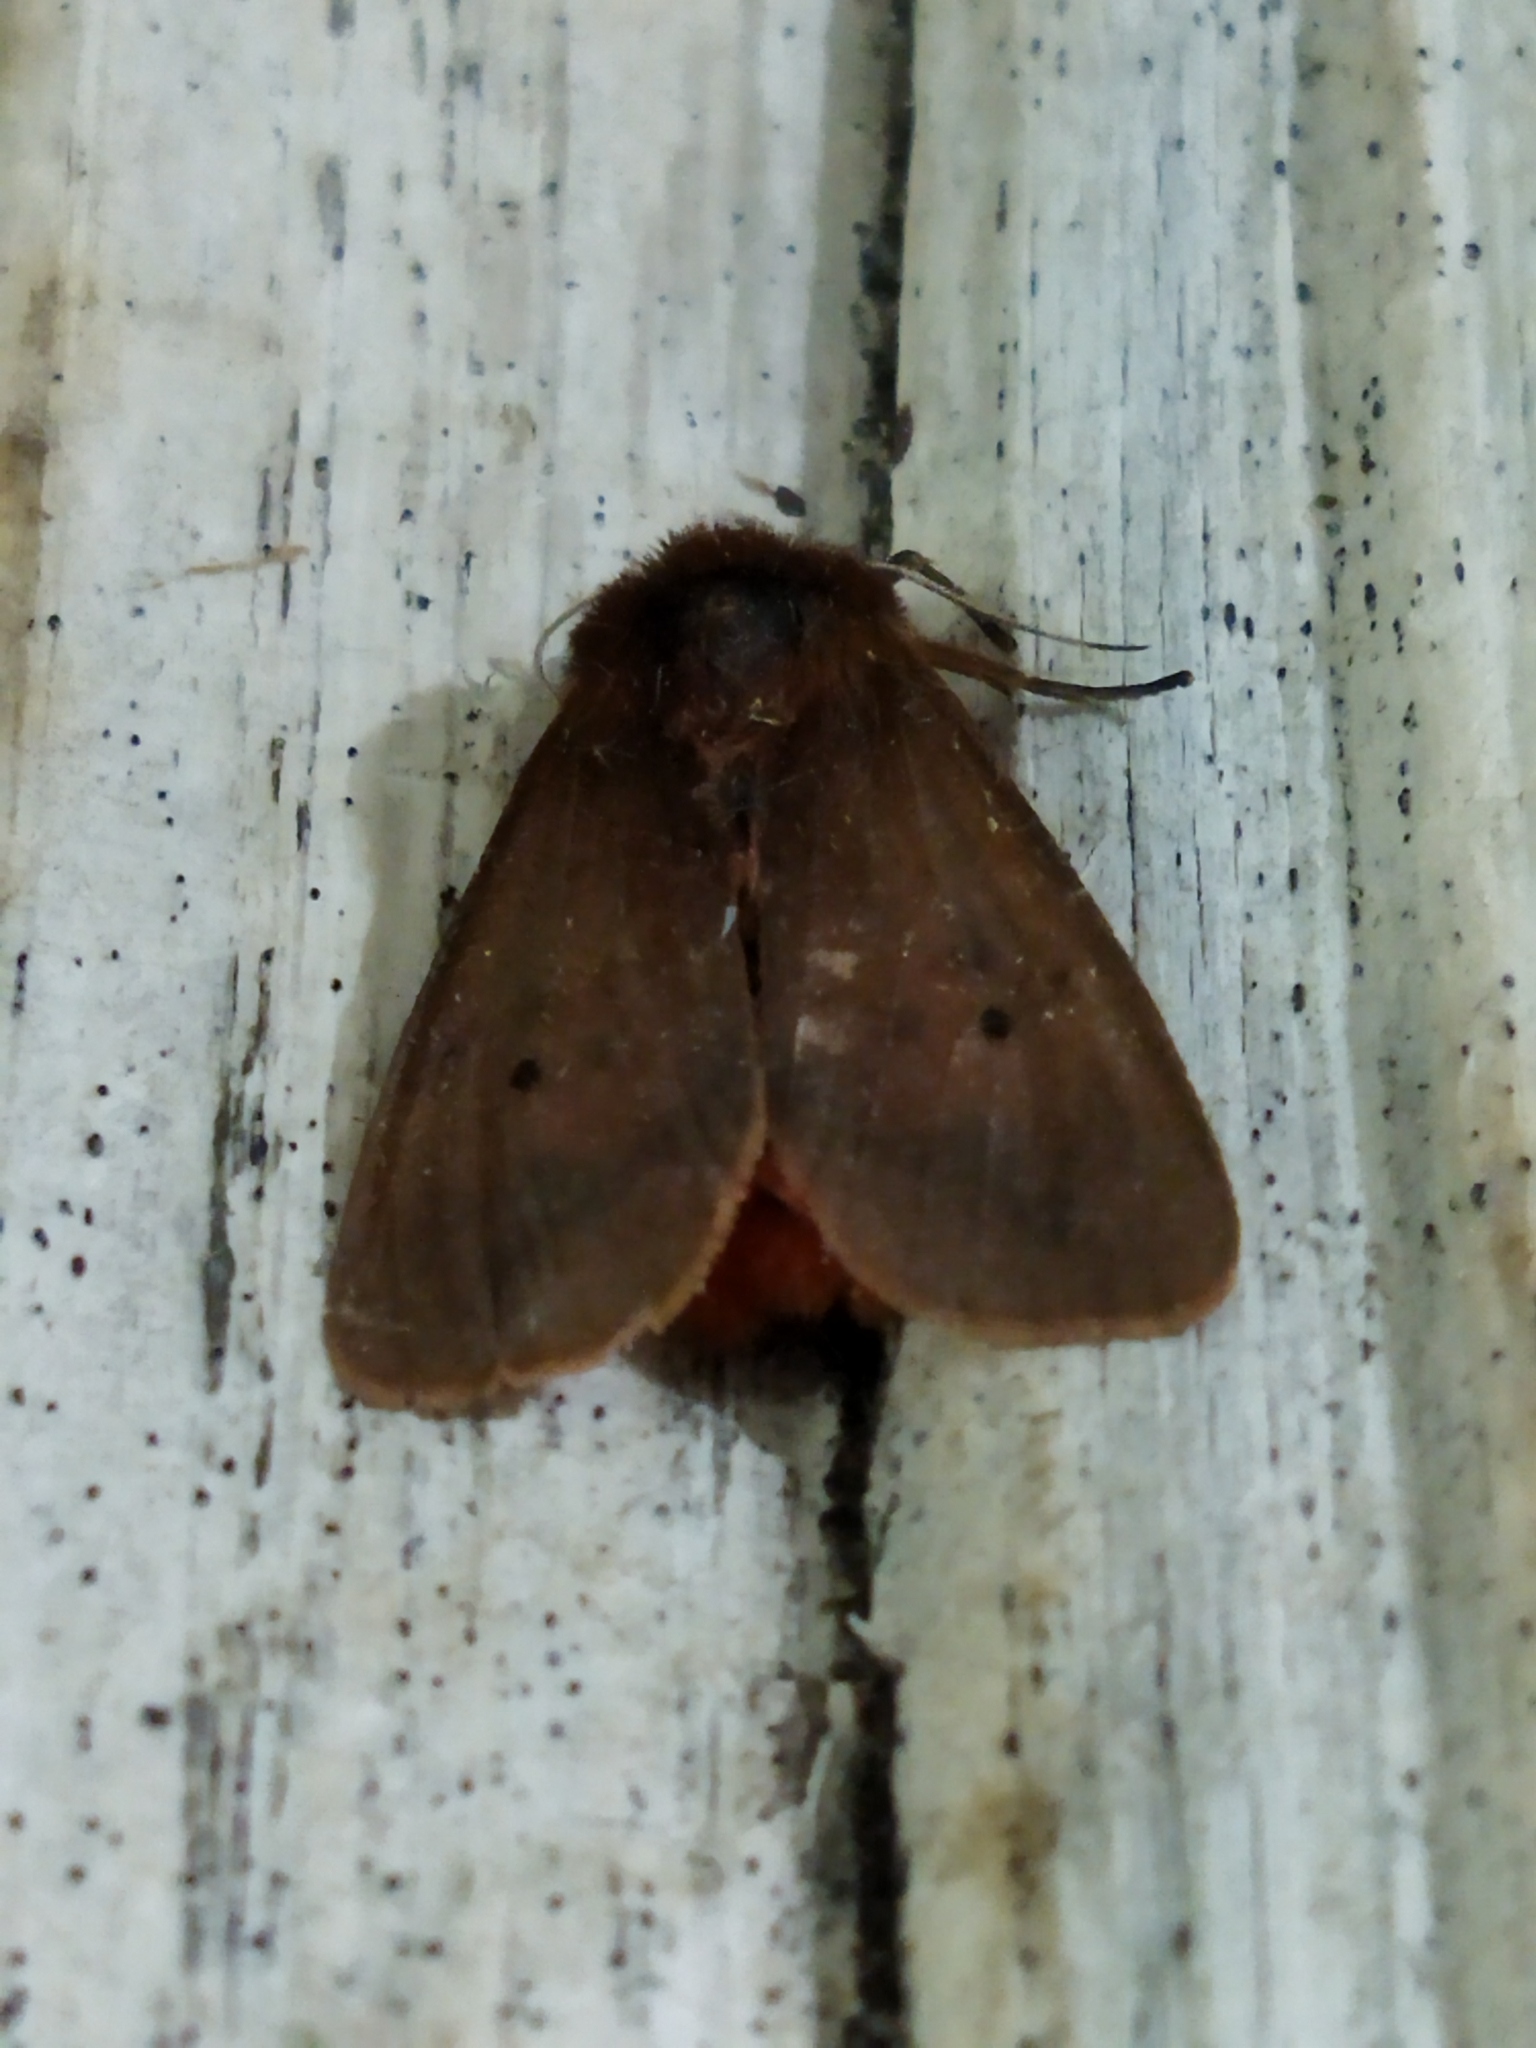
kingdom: Animalia
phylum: Arthropoda
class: Insecta
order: Lepidoptera
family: Erebidae
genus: Phragmatobia
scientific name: Phragmatobia fuliginosa
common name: Ruby tiger
